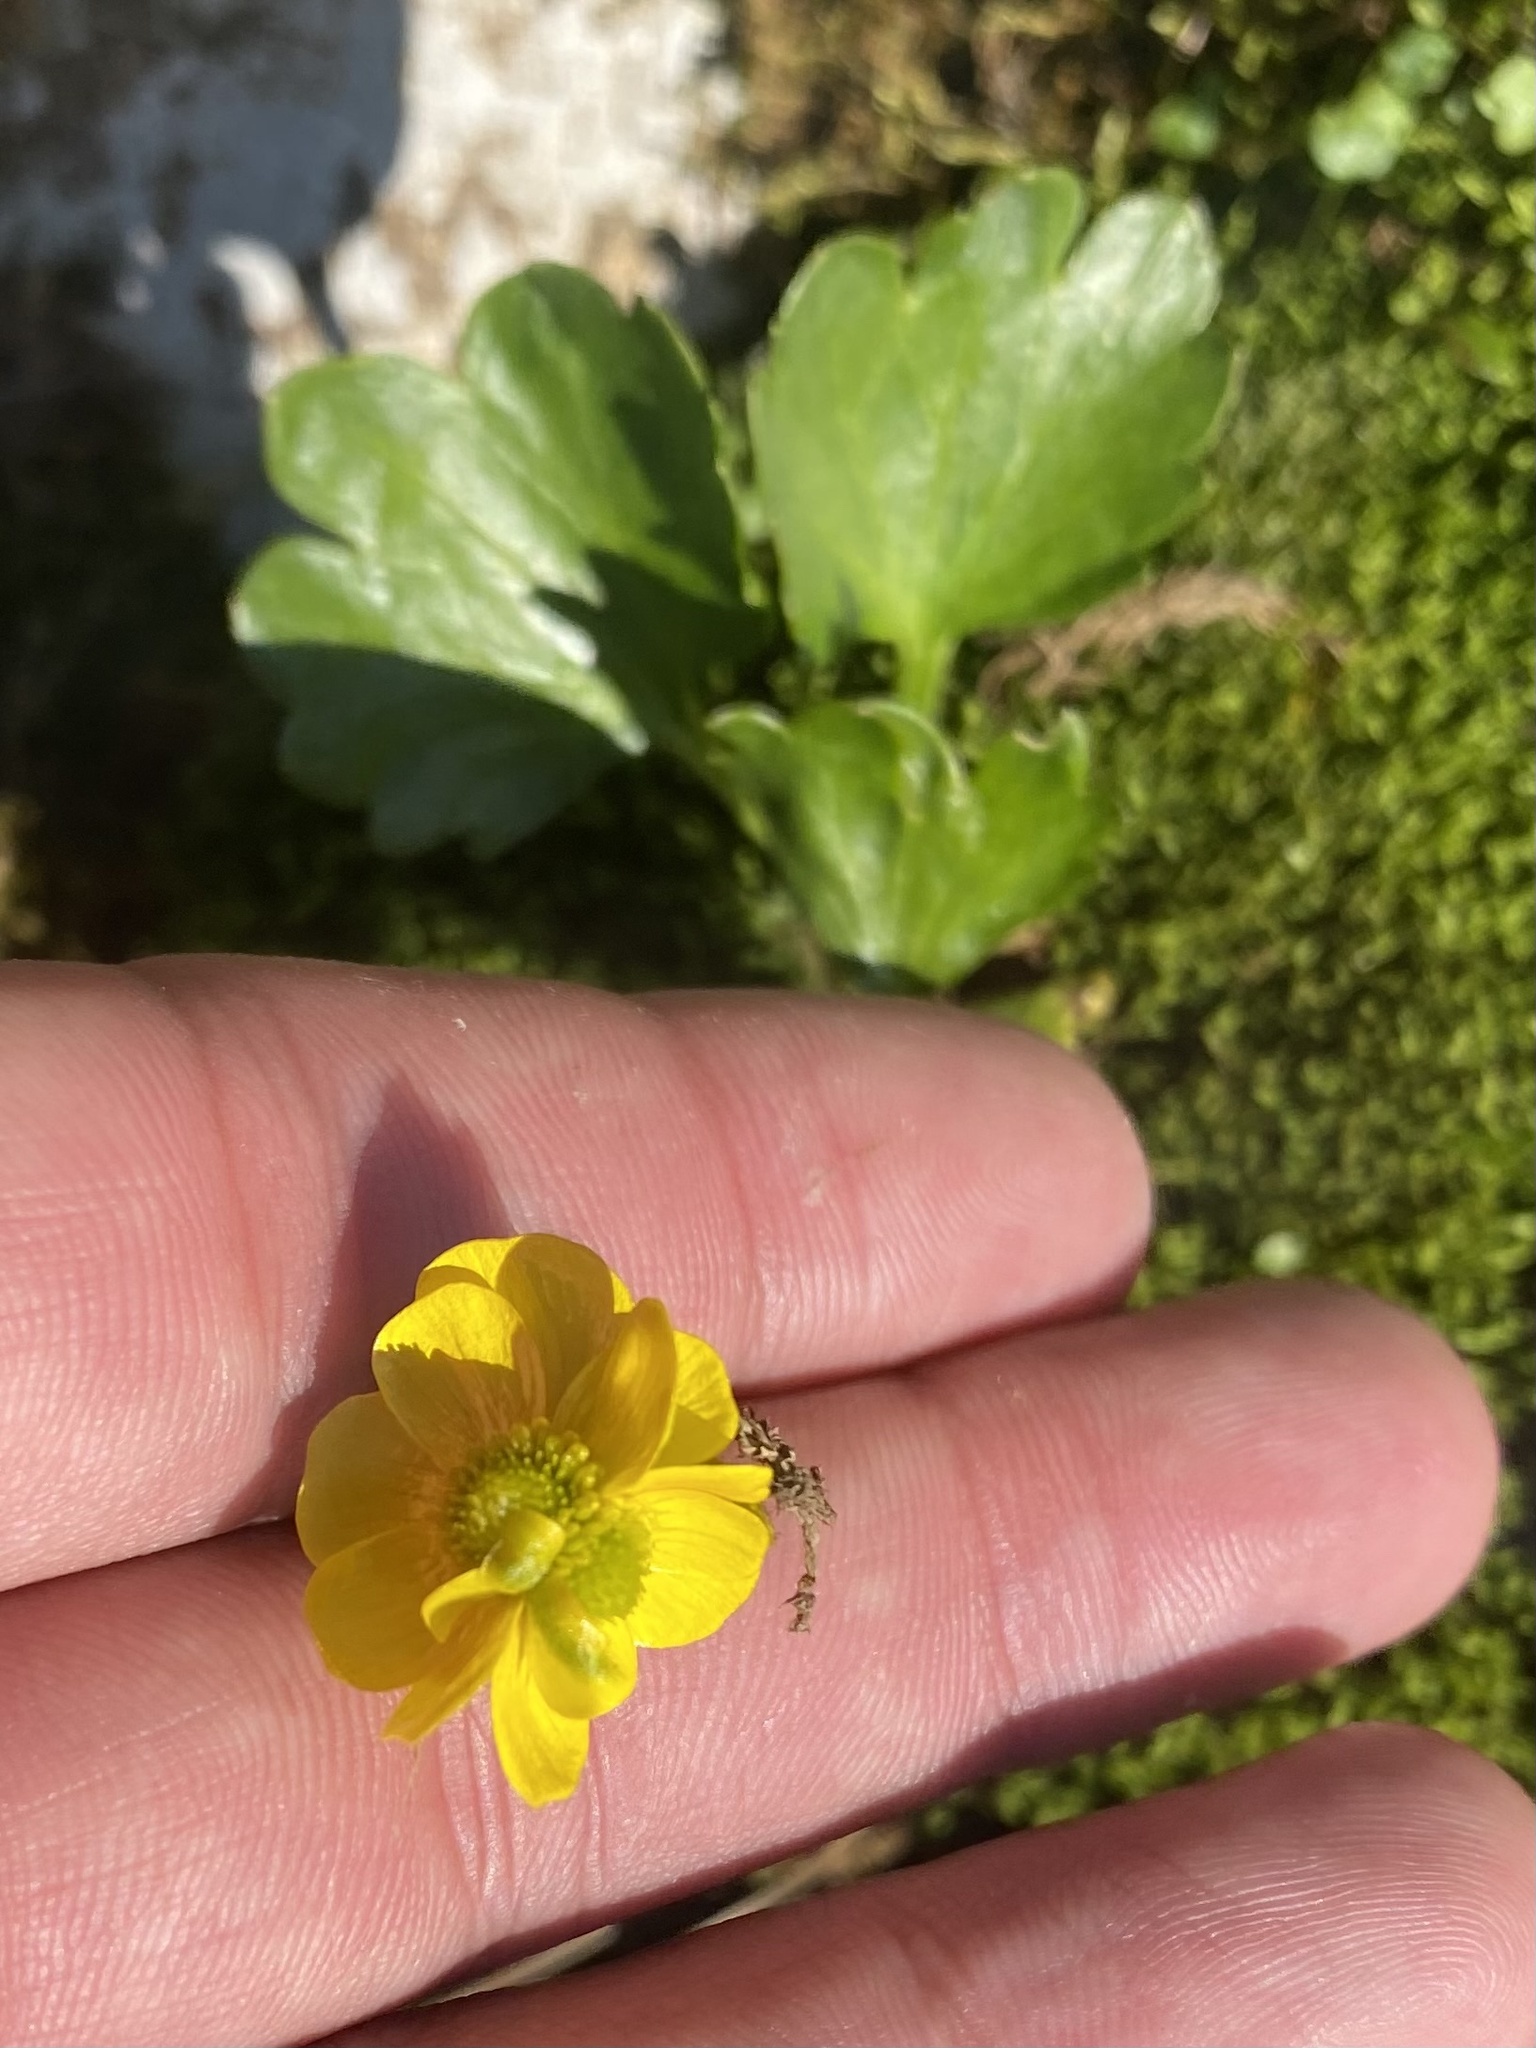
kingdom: Plantae
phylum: Tracheophyta
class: Magnoliopsida
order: Ranunculales
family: Ranunculaceae
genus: Ranunculus
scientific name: Ranunculus sulphureus
